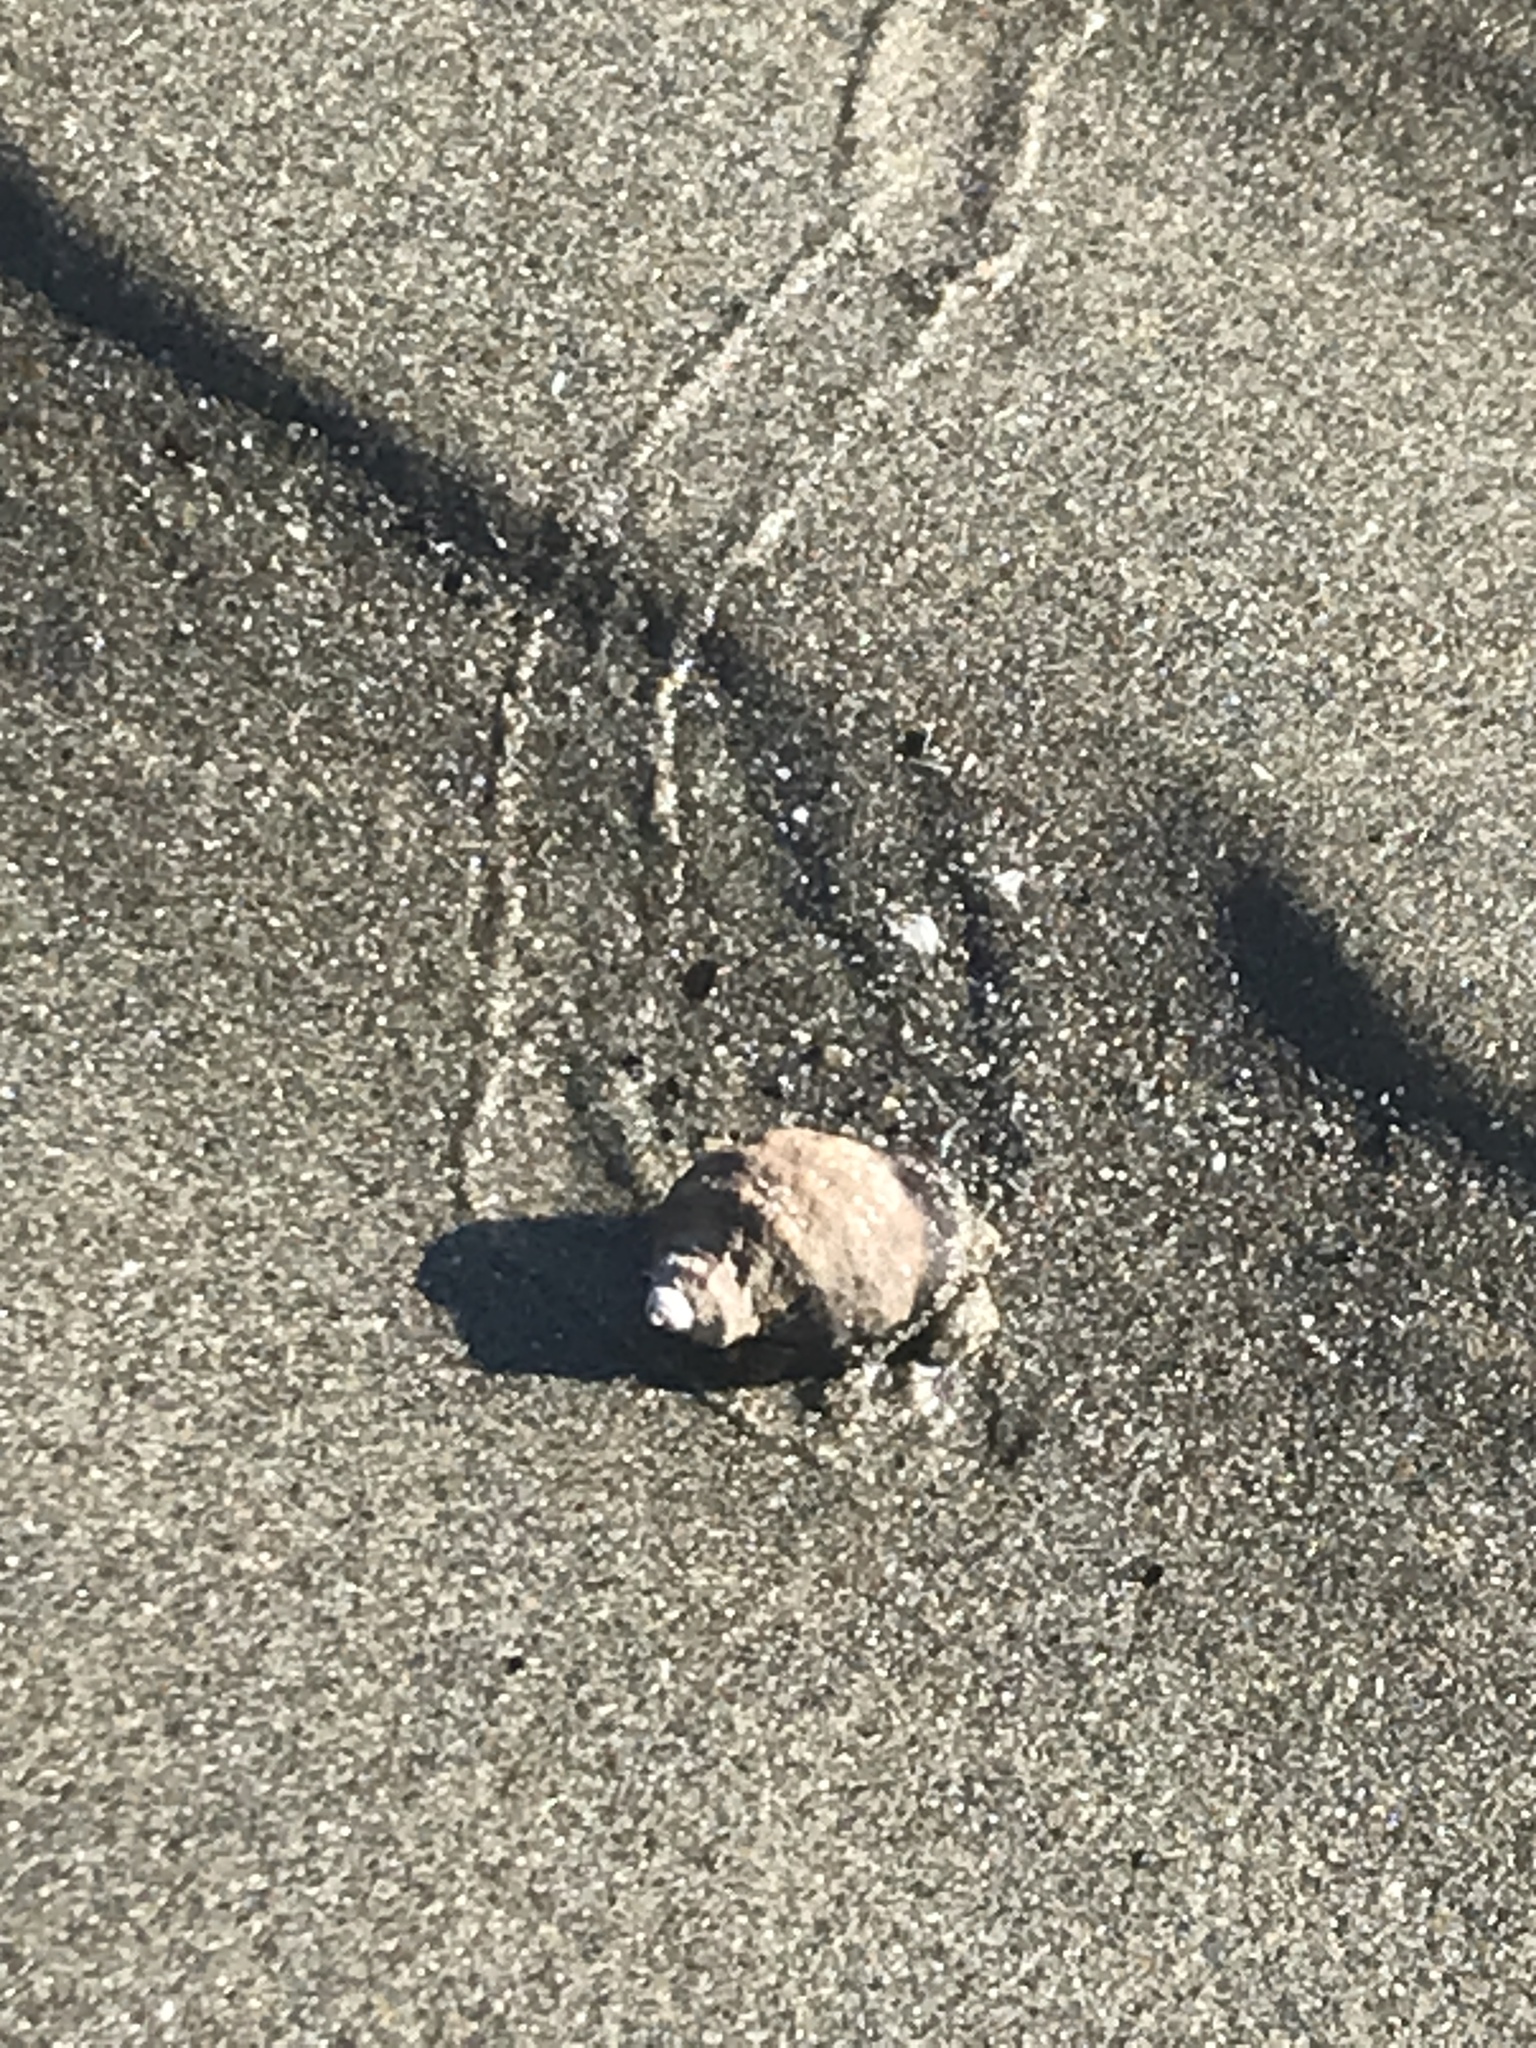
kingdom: Animalia
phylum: Mollusca
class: Gastropoda
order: Neogastropoda
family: Muricidae
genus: Nucella
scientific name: Nucella lamellosa
